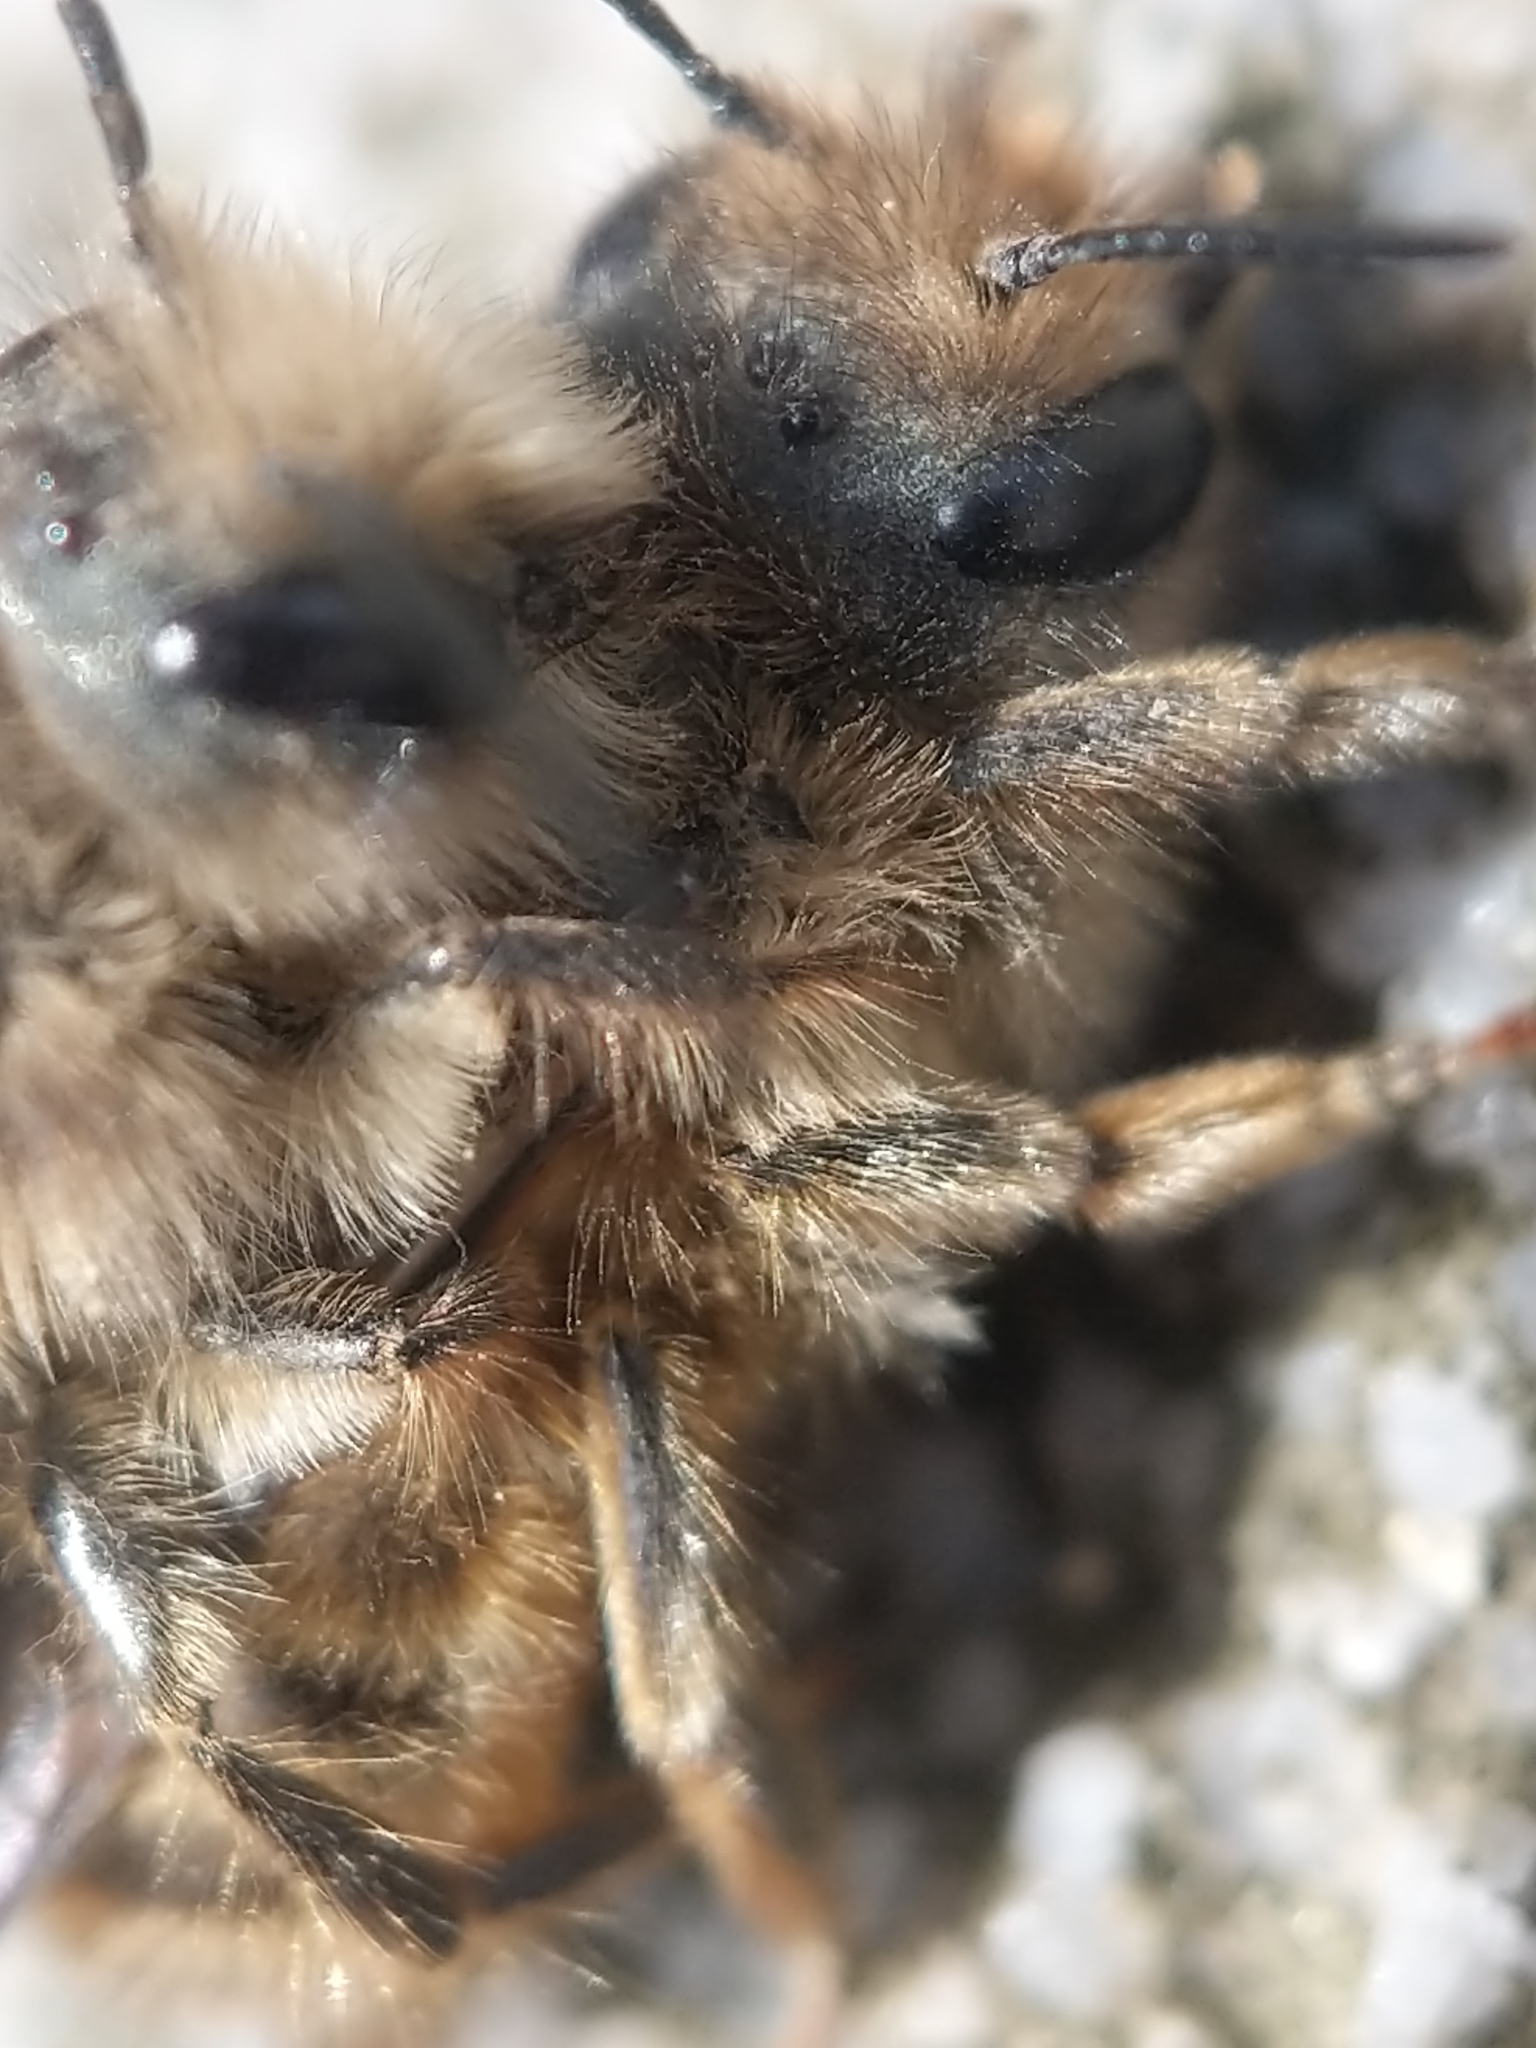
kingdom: Animalia
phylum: Arthropoda
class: Insecta
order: Hymenoptera
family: Megachilidae
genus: Osmia
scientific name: Osmia cornifrons
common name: Horn-faced bee
